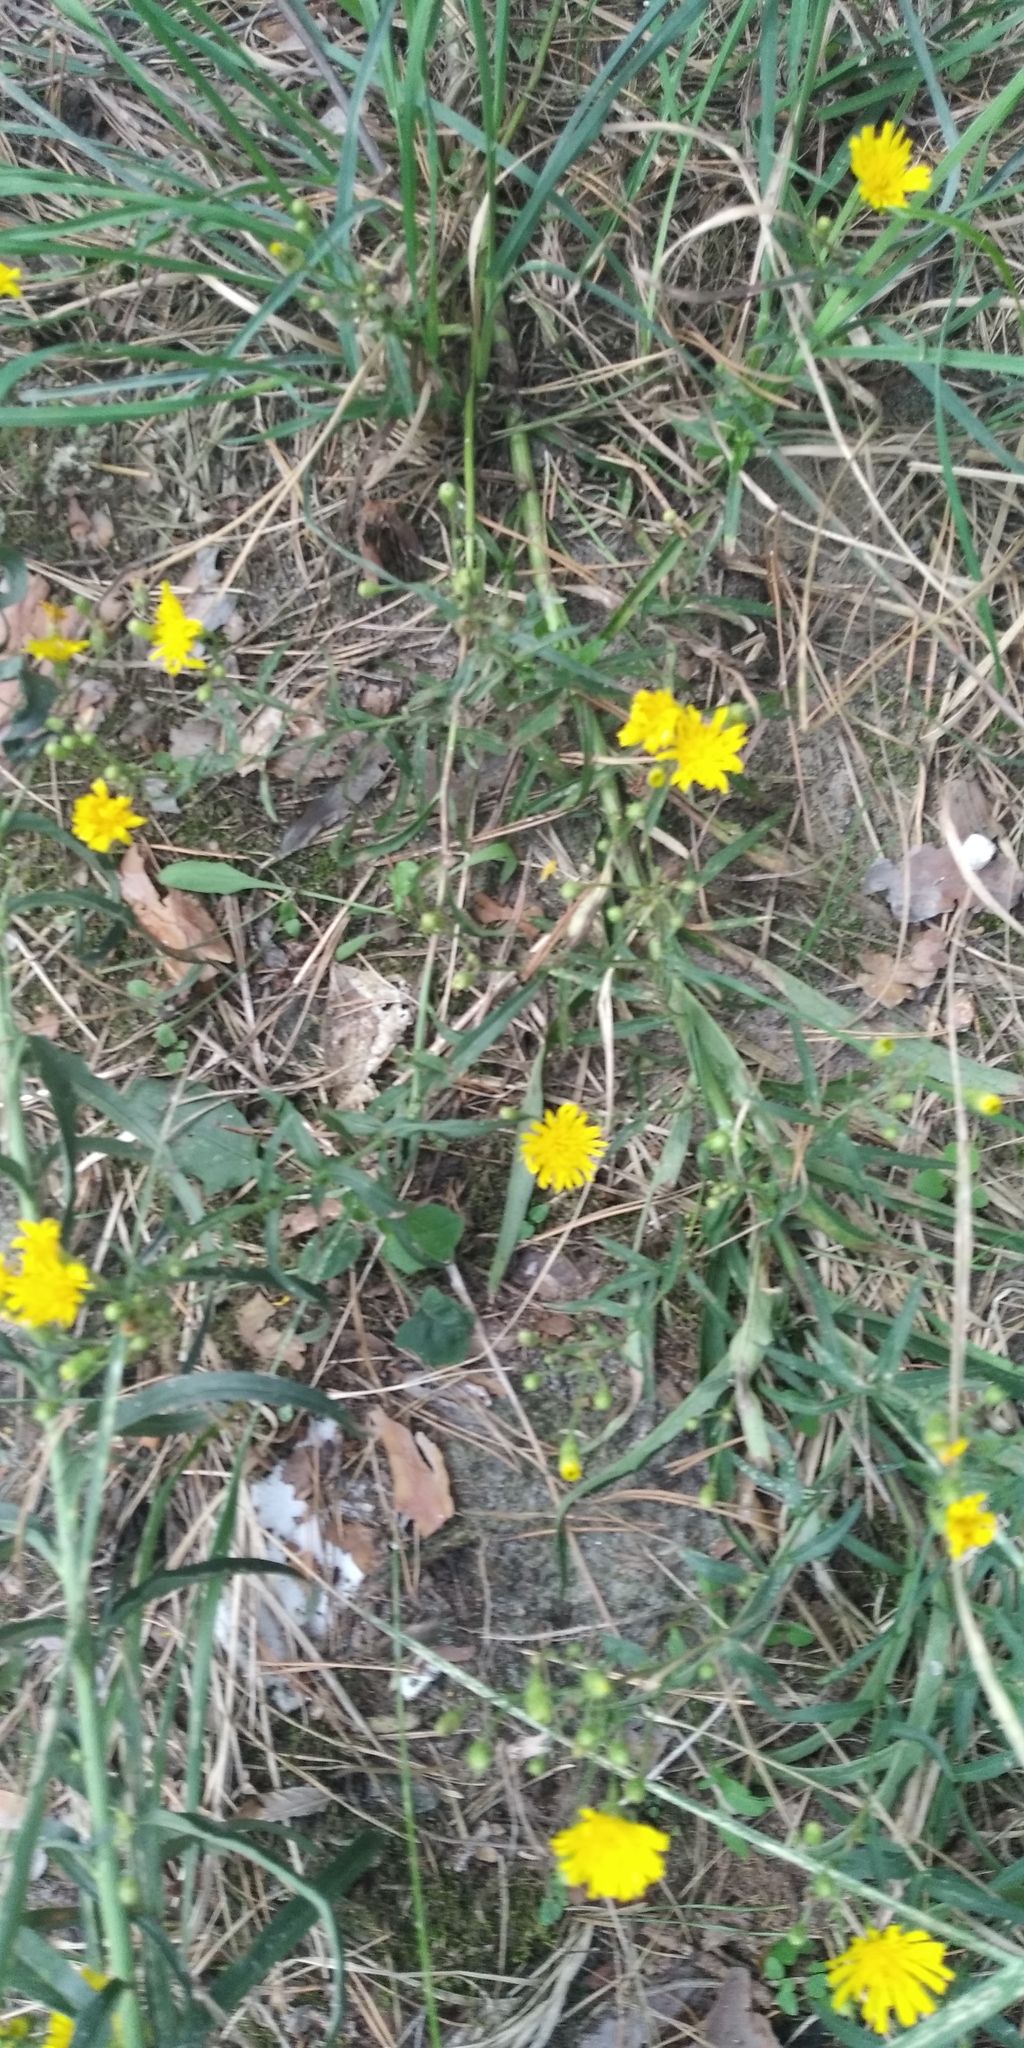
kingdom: Plantae
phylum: Tracheophyta
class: Magnoliopsida
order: Asterales
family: Asteraceae
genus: Hieracium
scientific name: Hieracium umbellatum
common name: Northern hawkweed
